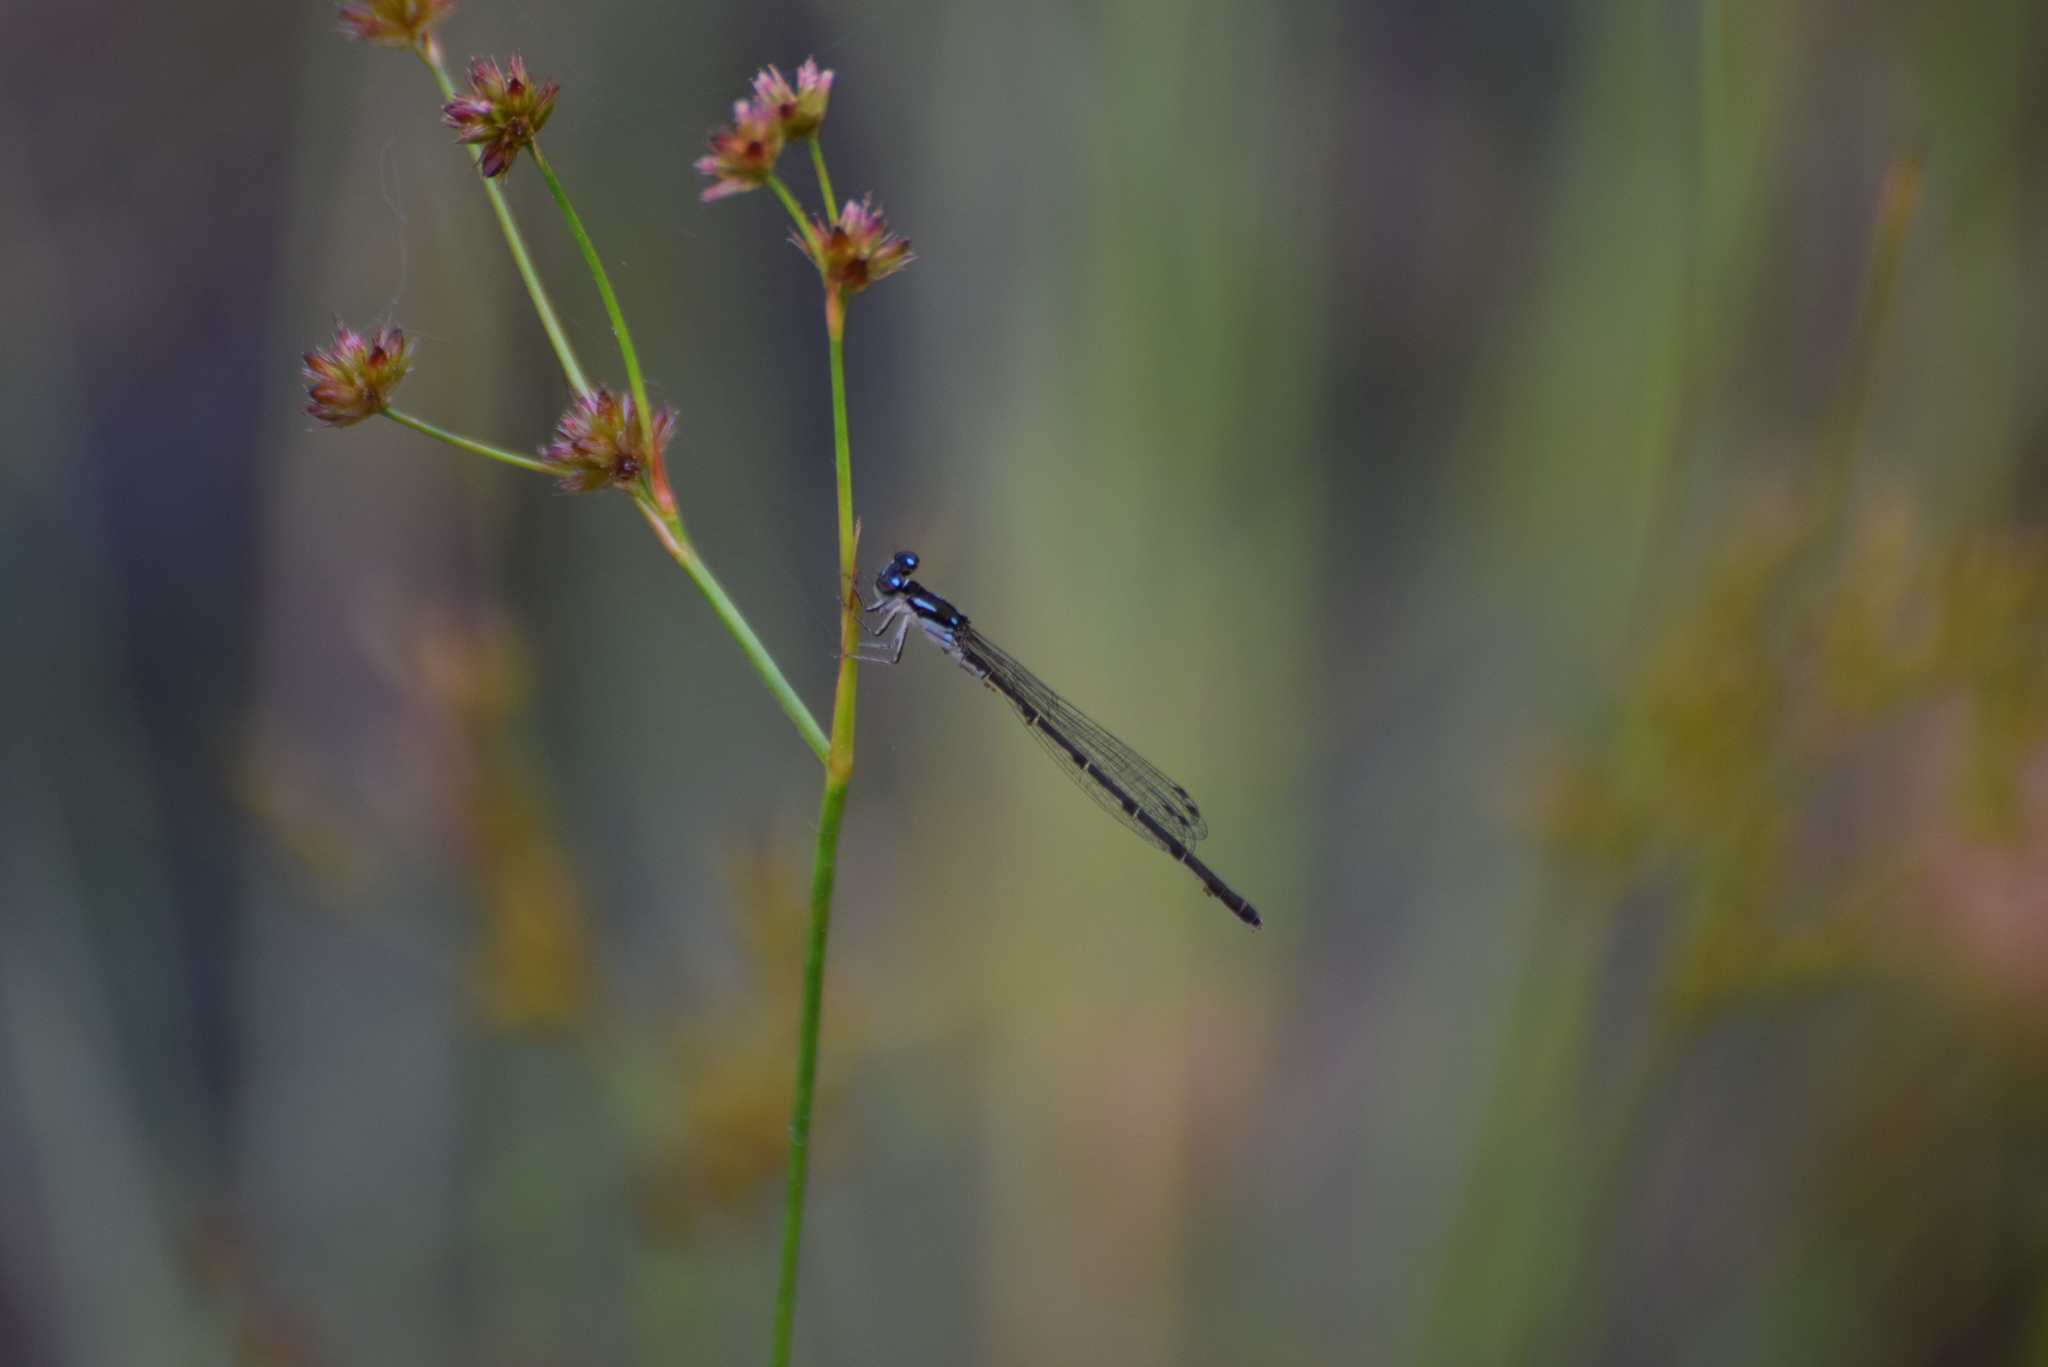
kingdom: Animalia
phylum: Arthropoda
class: Insecta
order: Odonata
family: Coenagrionidae
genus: Ischnura
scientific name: Ischnura posita
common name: Fragile forktail
